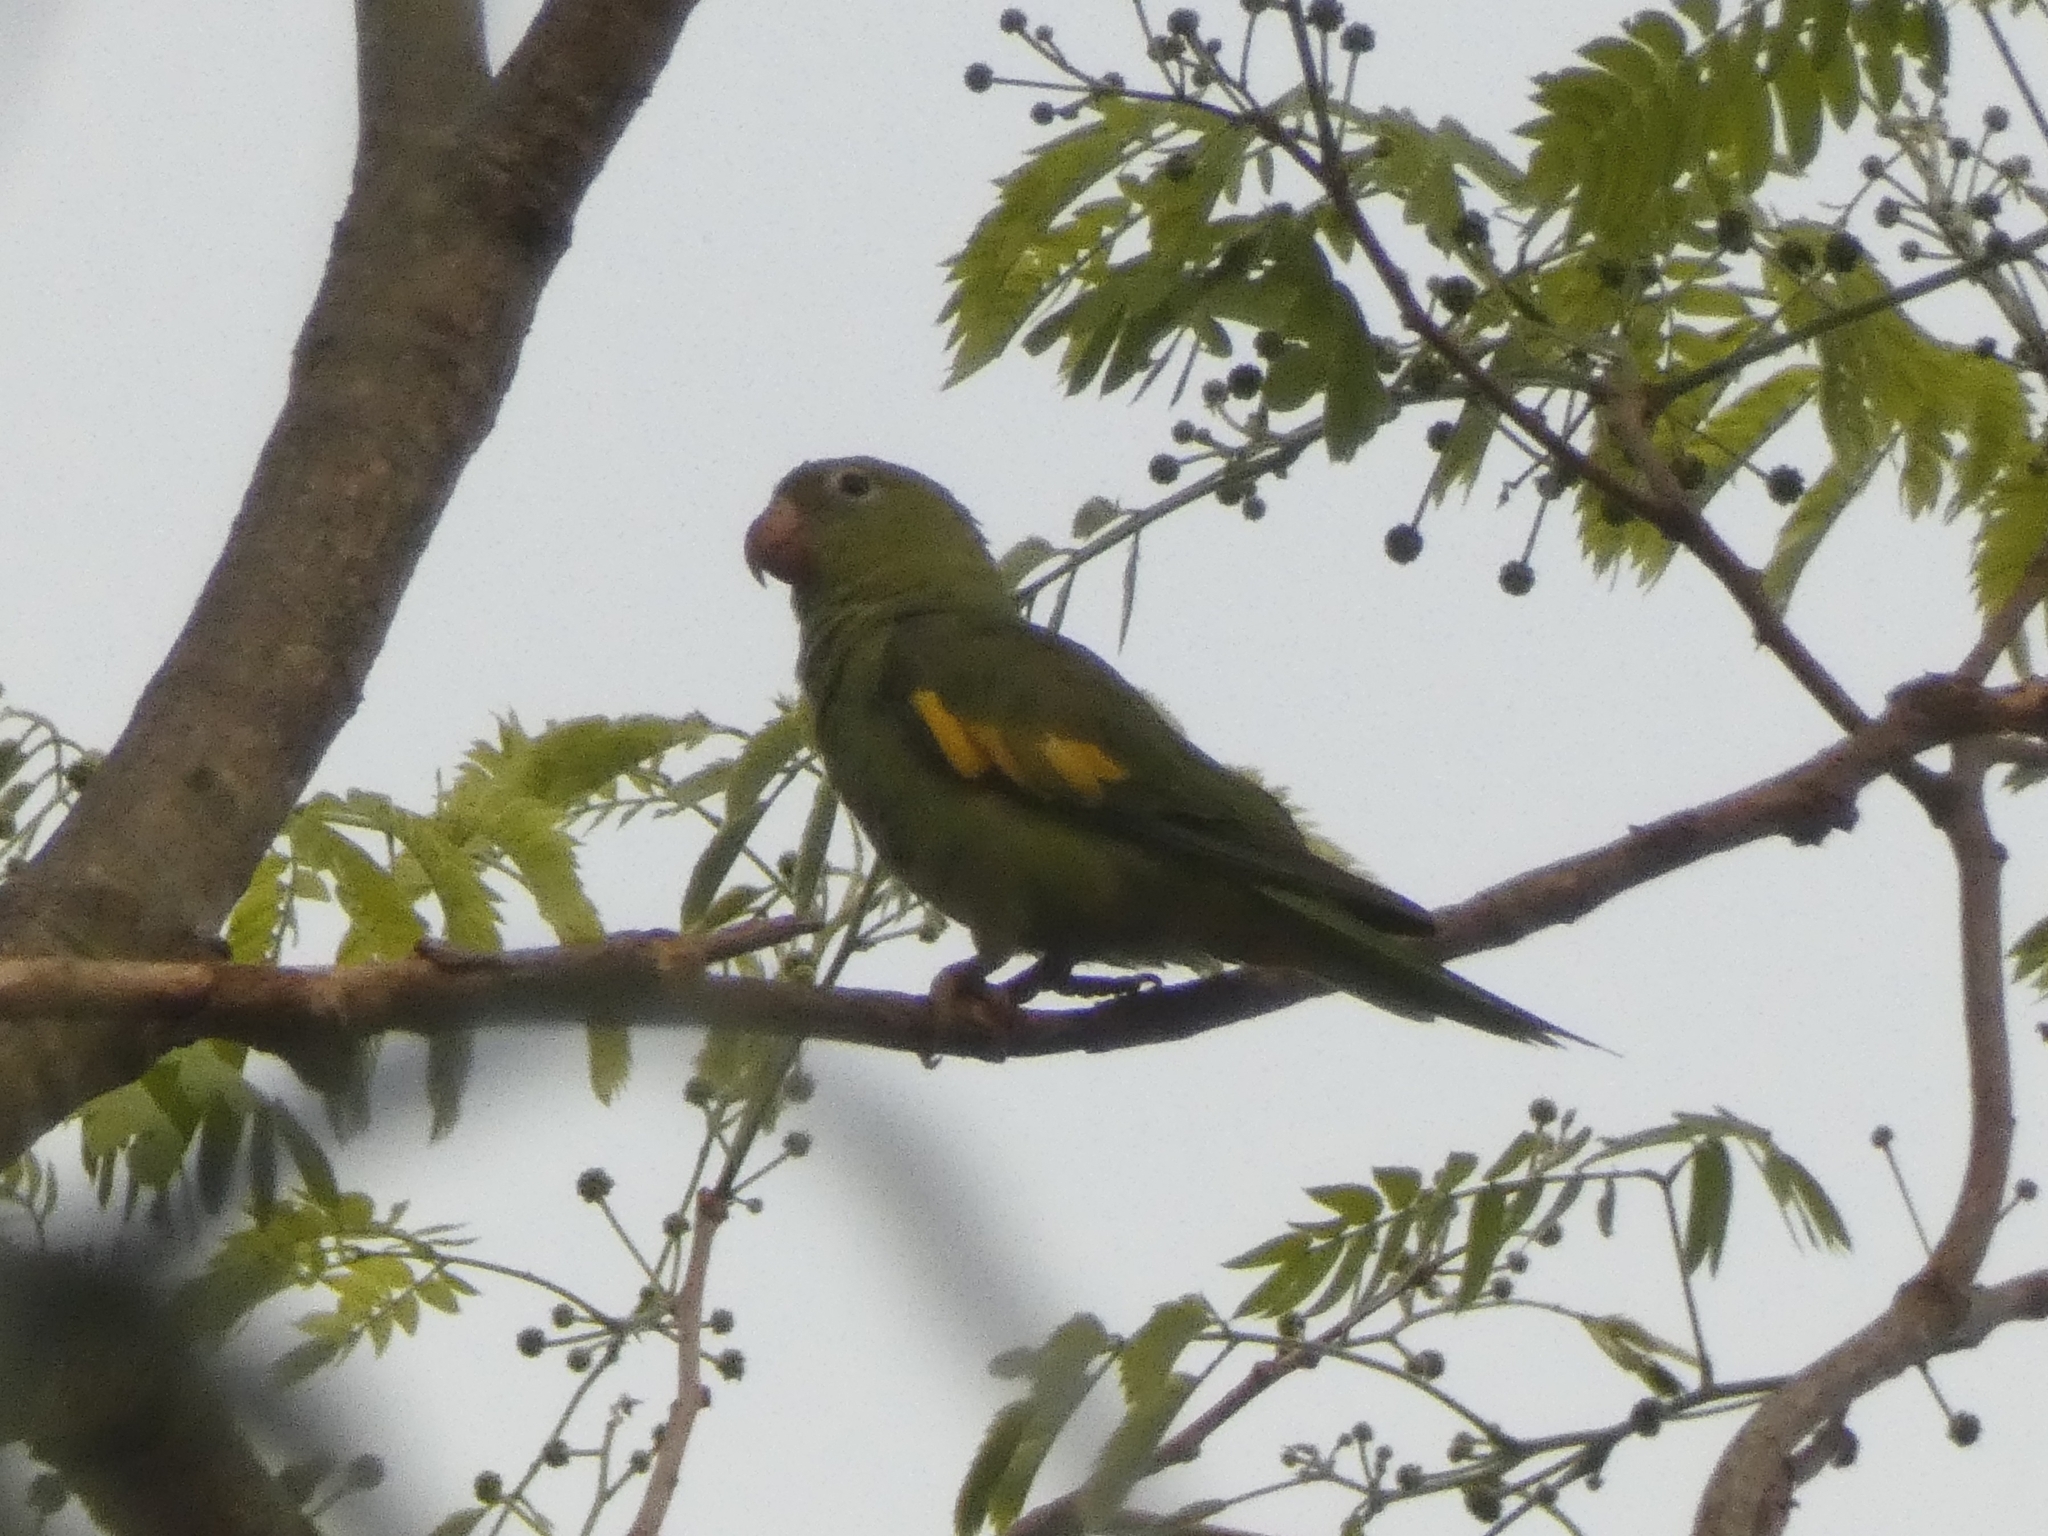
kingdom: Animalia
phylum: Chordata
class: Aves
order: Psittaciformes
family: Psittacidae
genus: Brotogeris
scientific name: Brotogeris chiriri
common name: Yellow-chevroned parakeet
